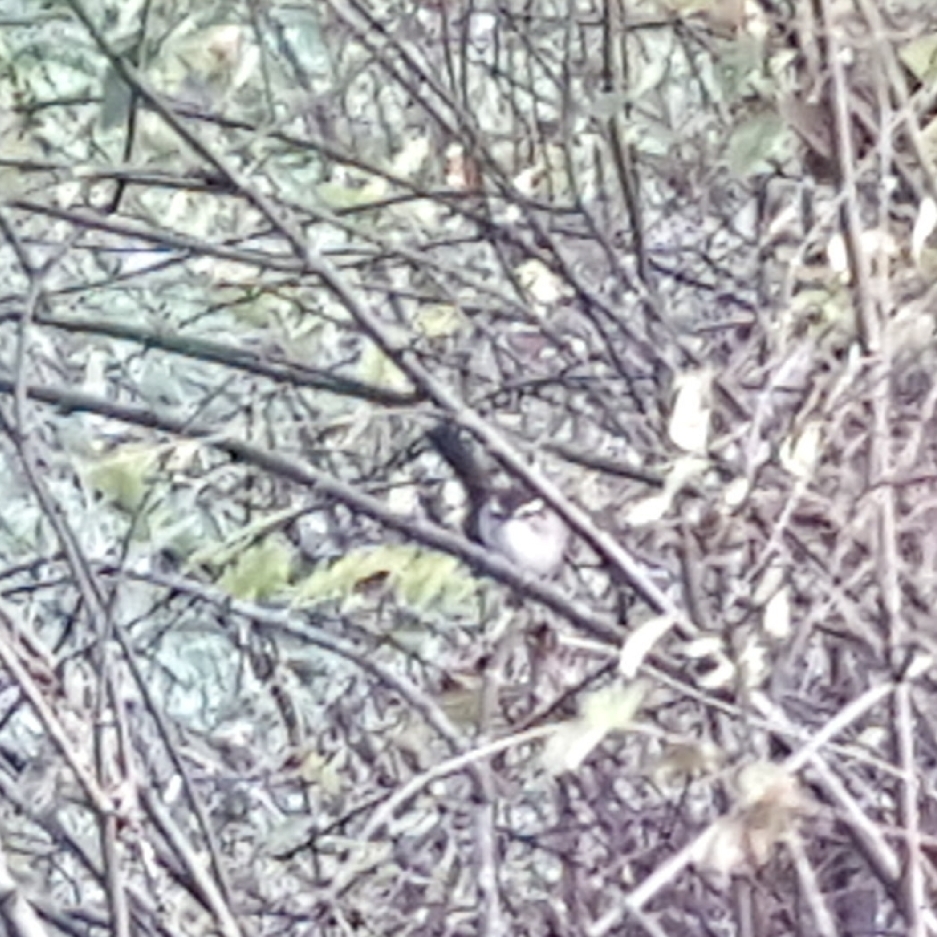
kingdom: Animalia
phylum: Chordata
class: Aves
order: Passeriformes
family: Troglodytidae
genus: Thryomanes
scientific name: Thryomanes bewickii
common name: Bewick's wren
